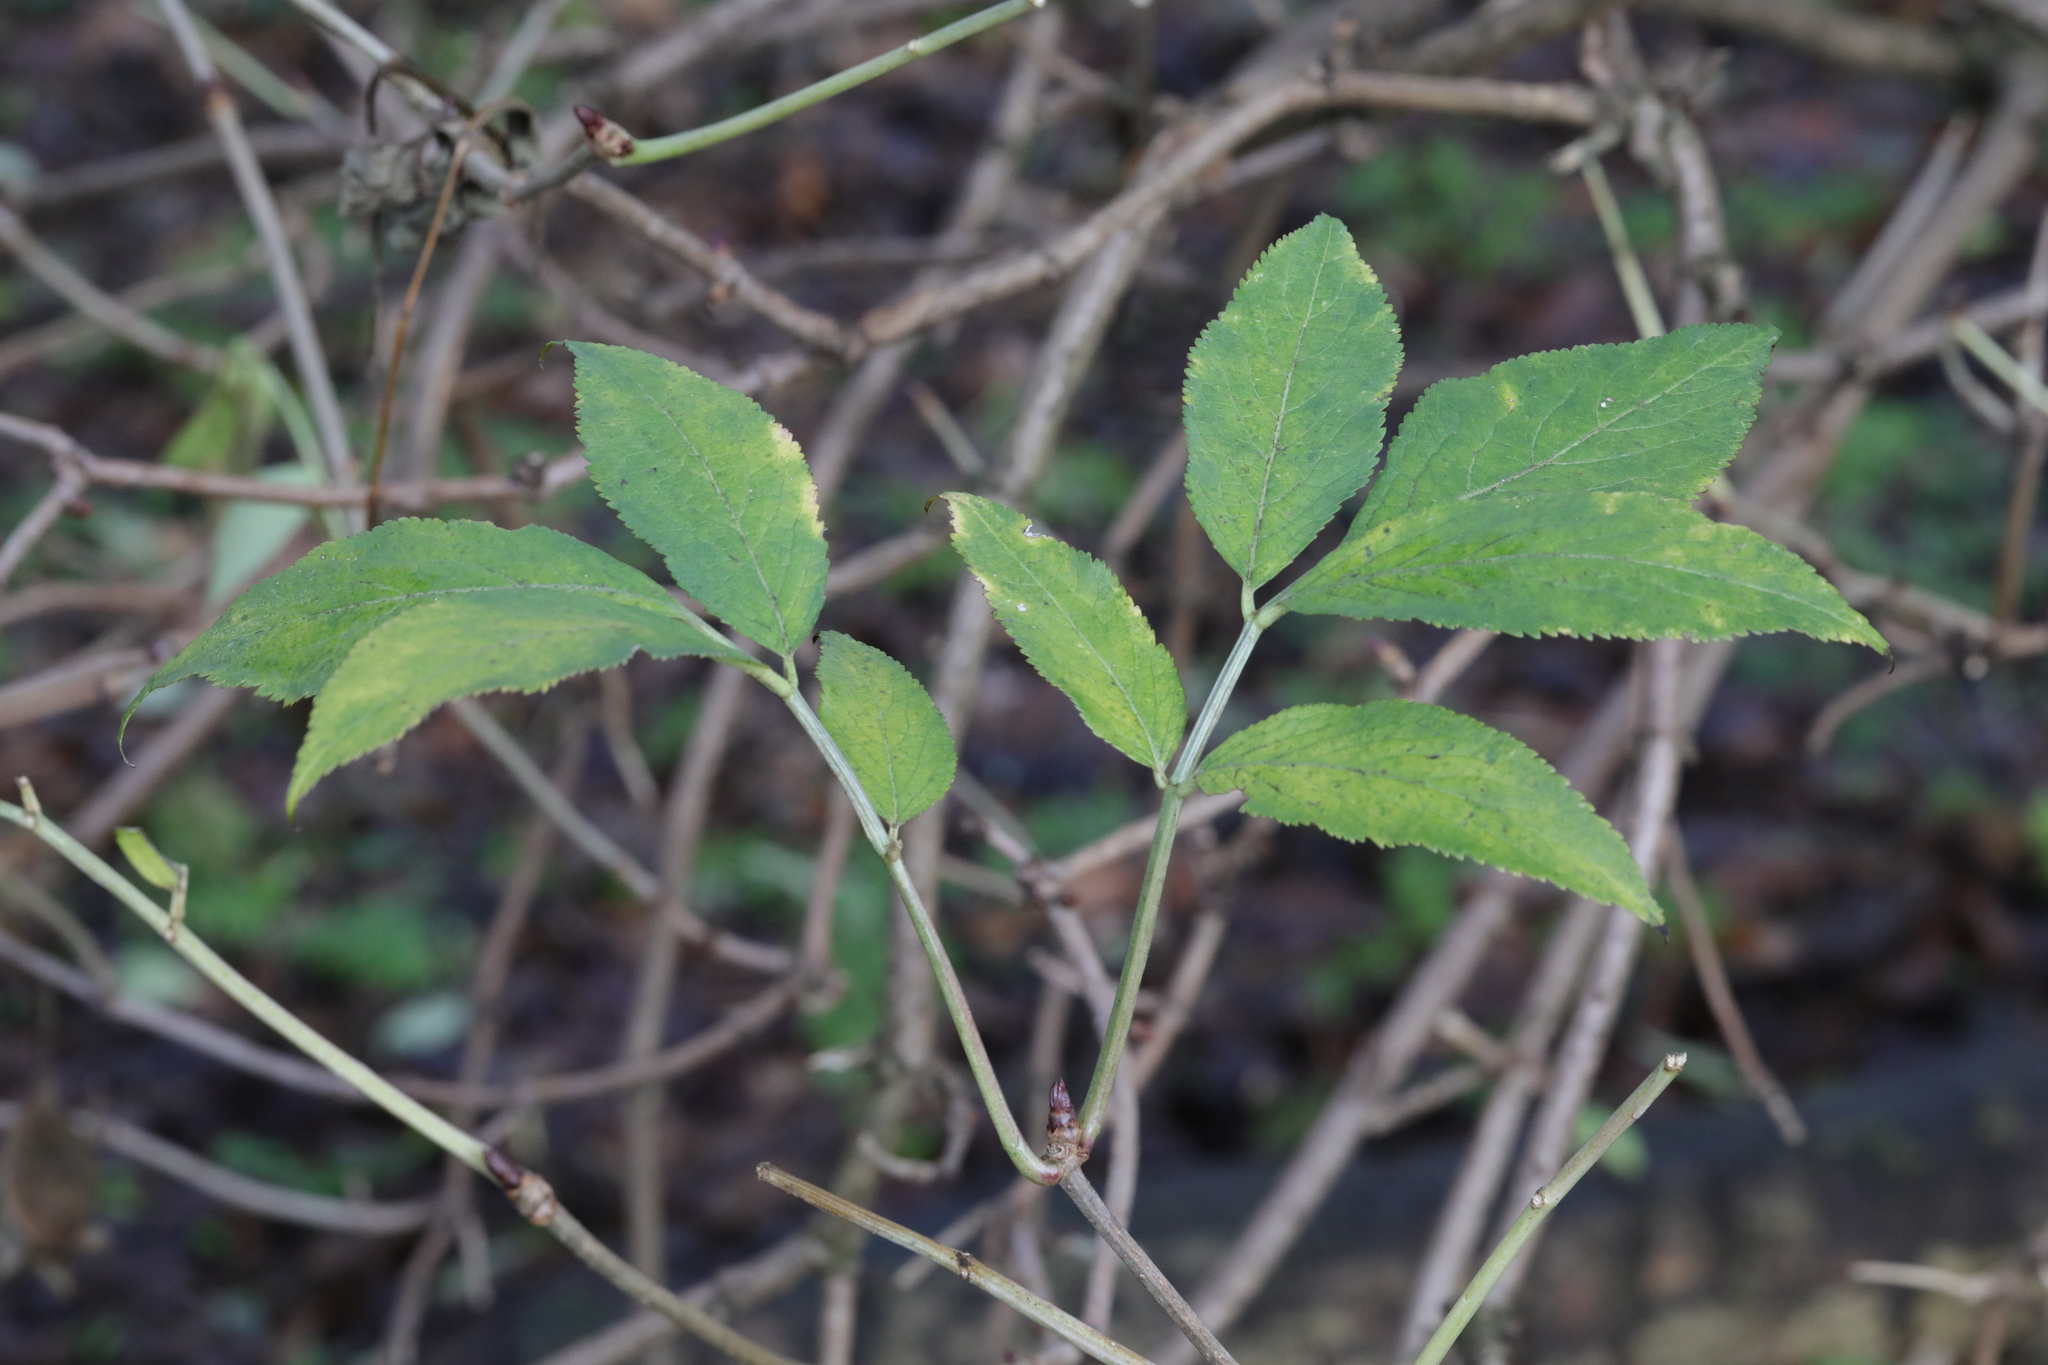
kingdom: Plantae
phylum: Tracheophyta
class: Magnoliopsida
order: Dipsacales
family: Viburnaceae
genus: Sambucus
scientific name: Sambucus nigra
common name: Elder
